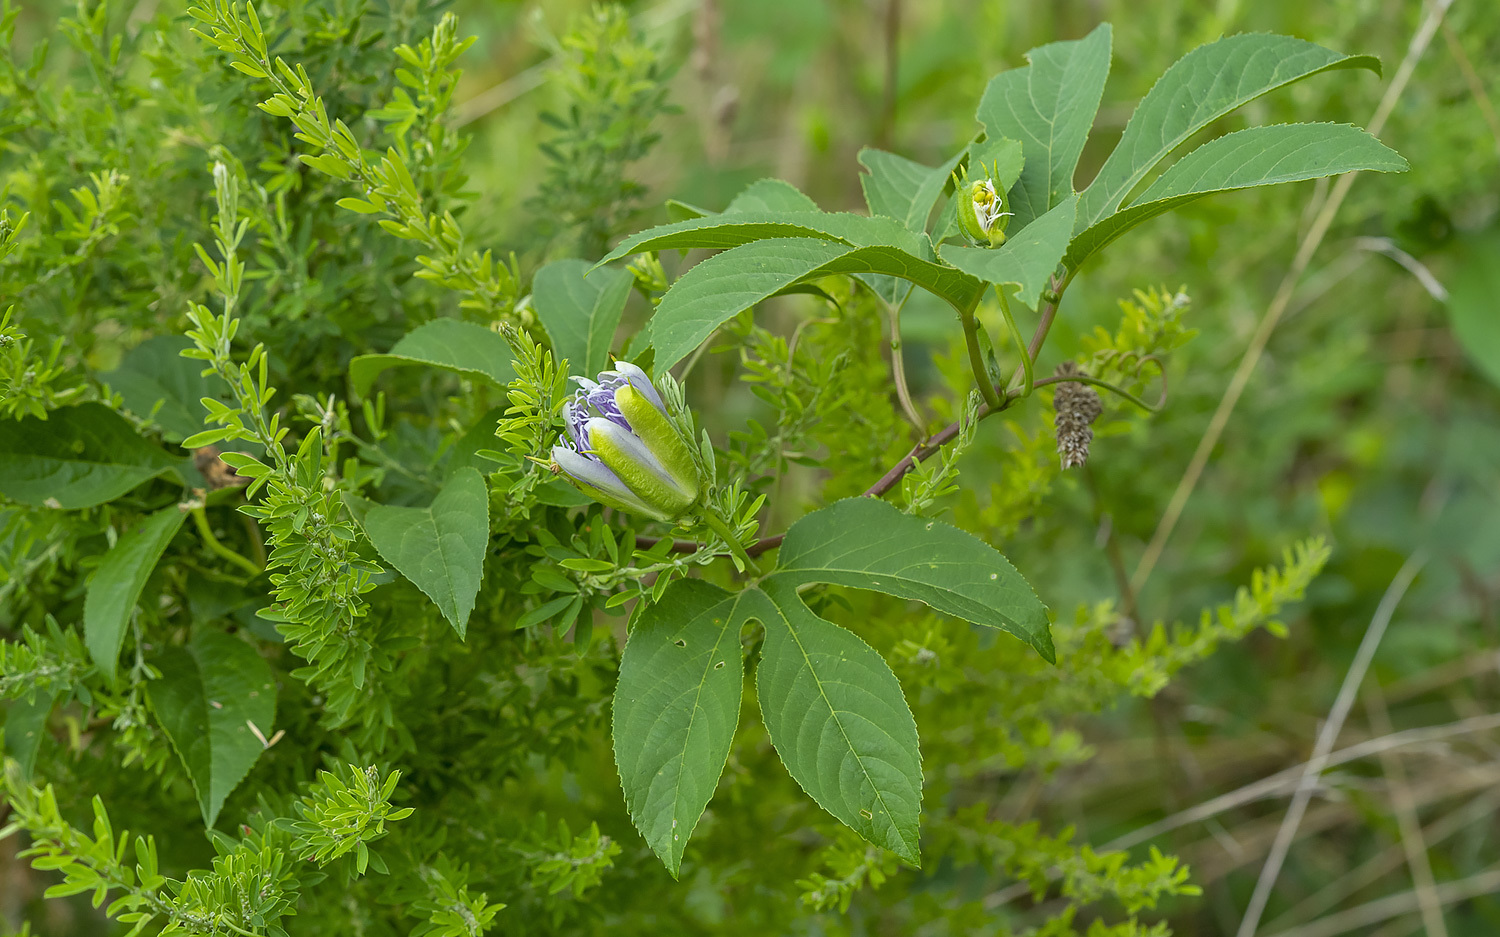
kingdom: Plantae
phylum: Tracheophyta
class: Magnoliopsida
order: Malpighiales
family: Passifloraceae
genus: Passiflora
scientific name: Passiflora incarnata
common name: Apricot-vine
